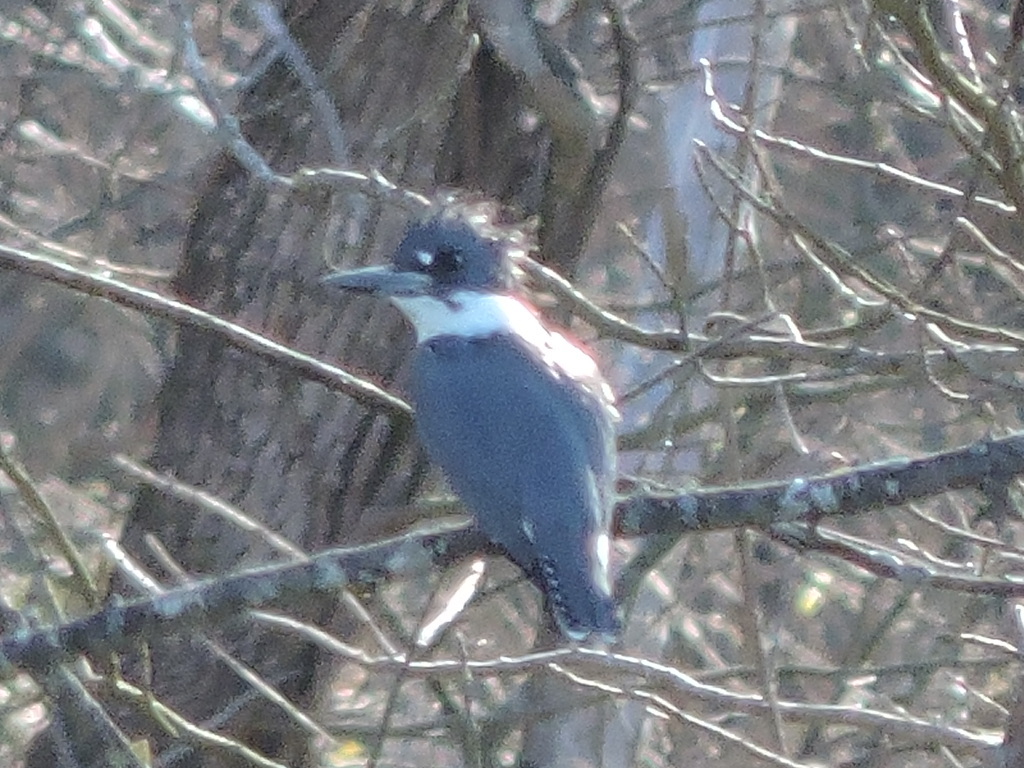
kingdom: Animalia
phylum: Chordata
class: Aves
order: Coraciiformes
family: Alcedinidae
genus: Megaceryle
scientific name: Megaceryle alcyon
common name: Belted kingfisher
